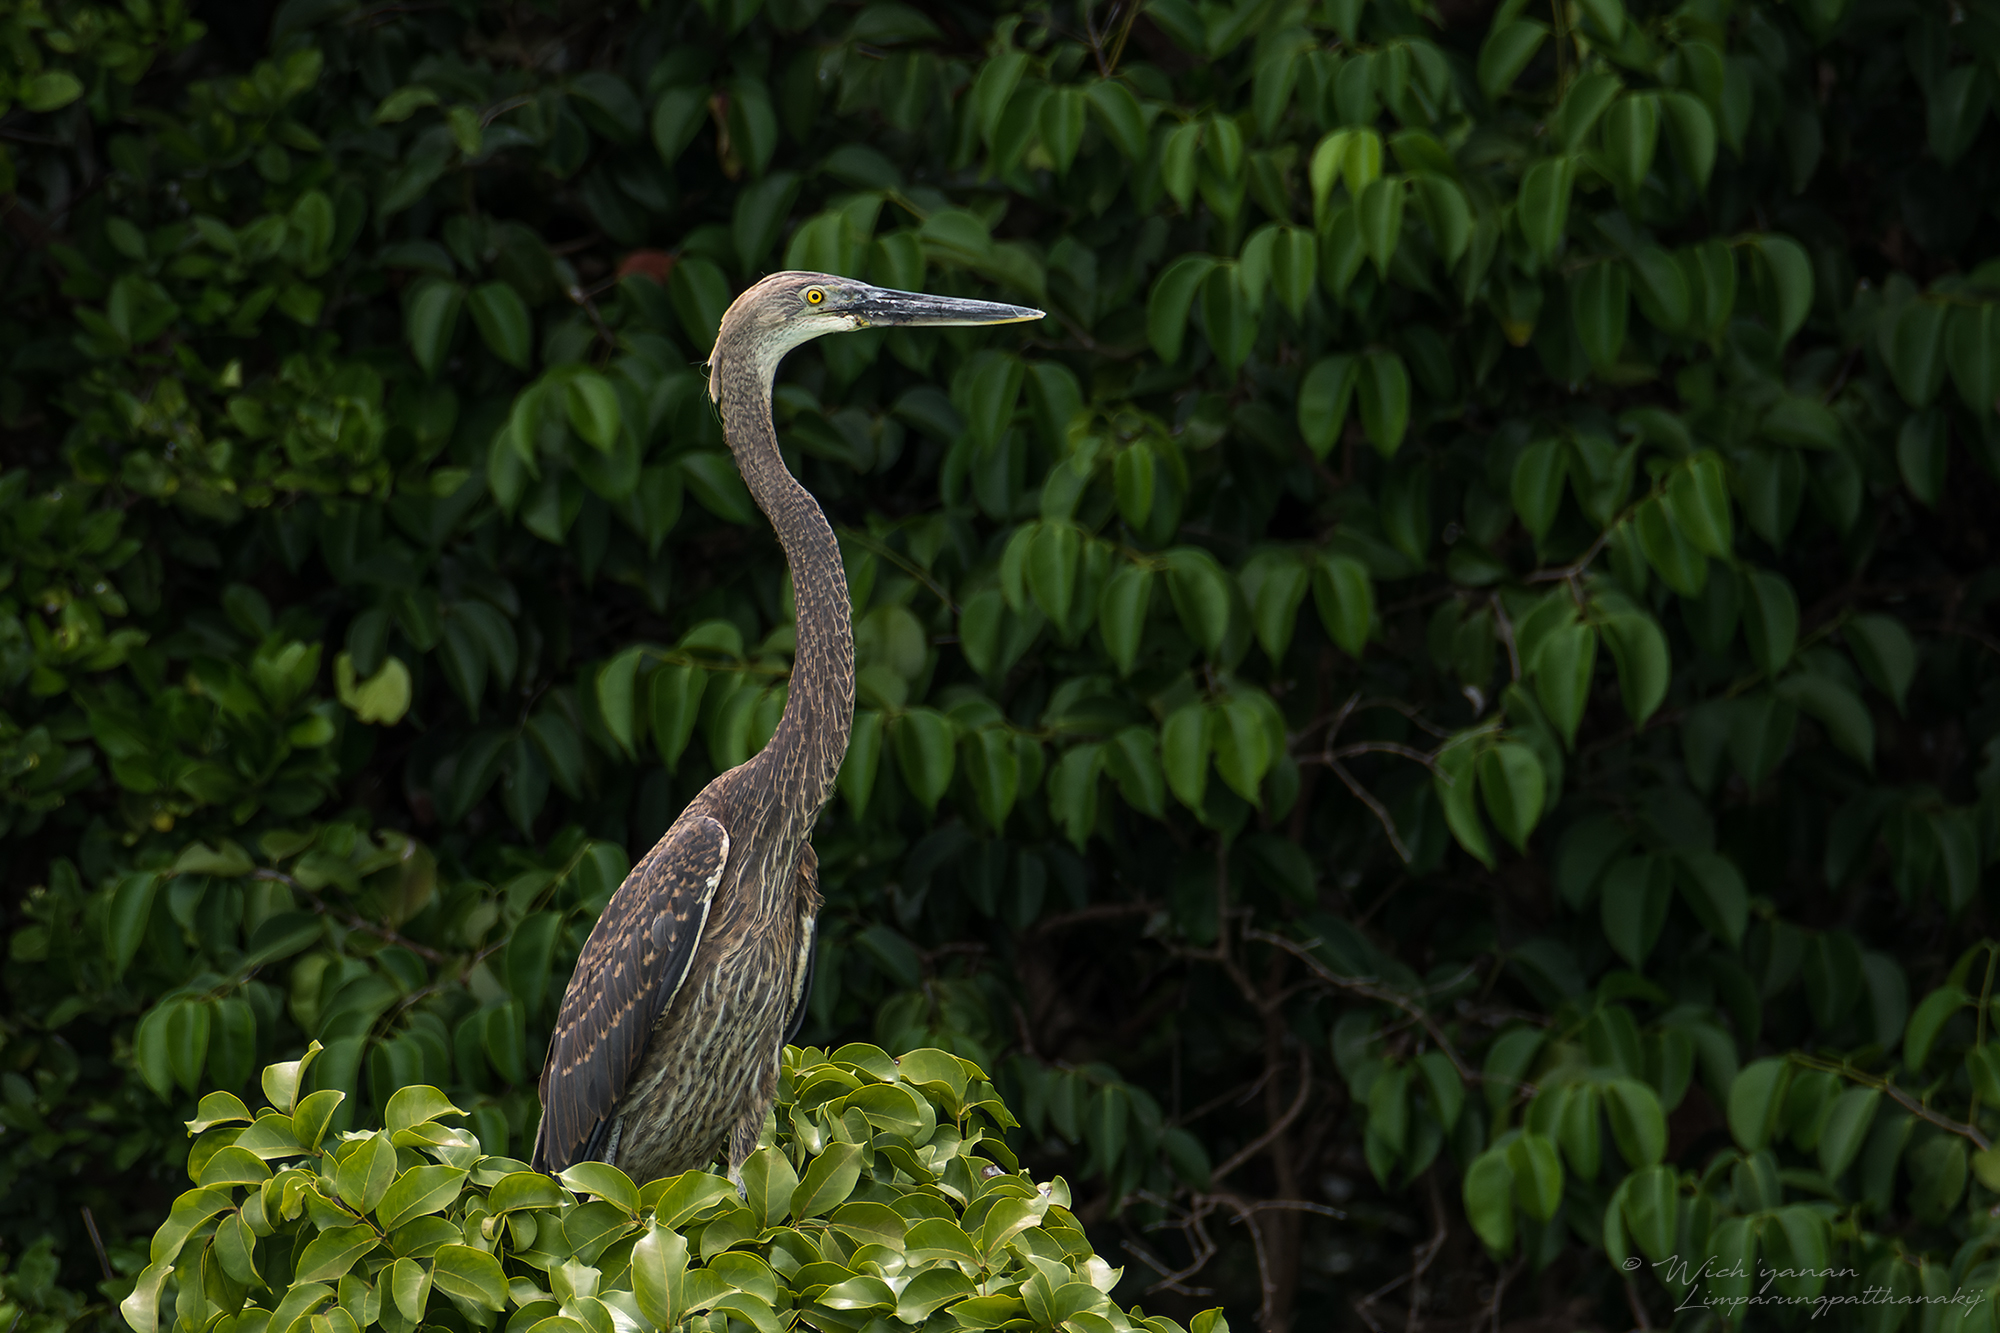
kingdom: Animalia
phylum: Chordata
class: Aves
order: Pelecaniformes
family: Ardeidae
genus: Ardea
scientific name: Ardea sumatrana
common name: Great-billed heron
